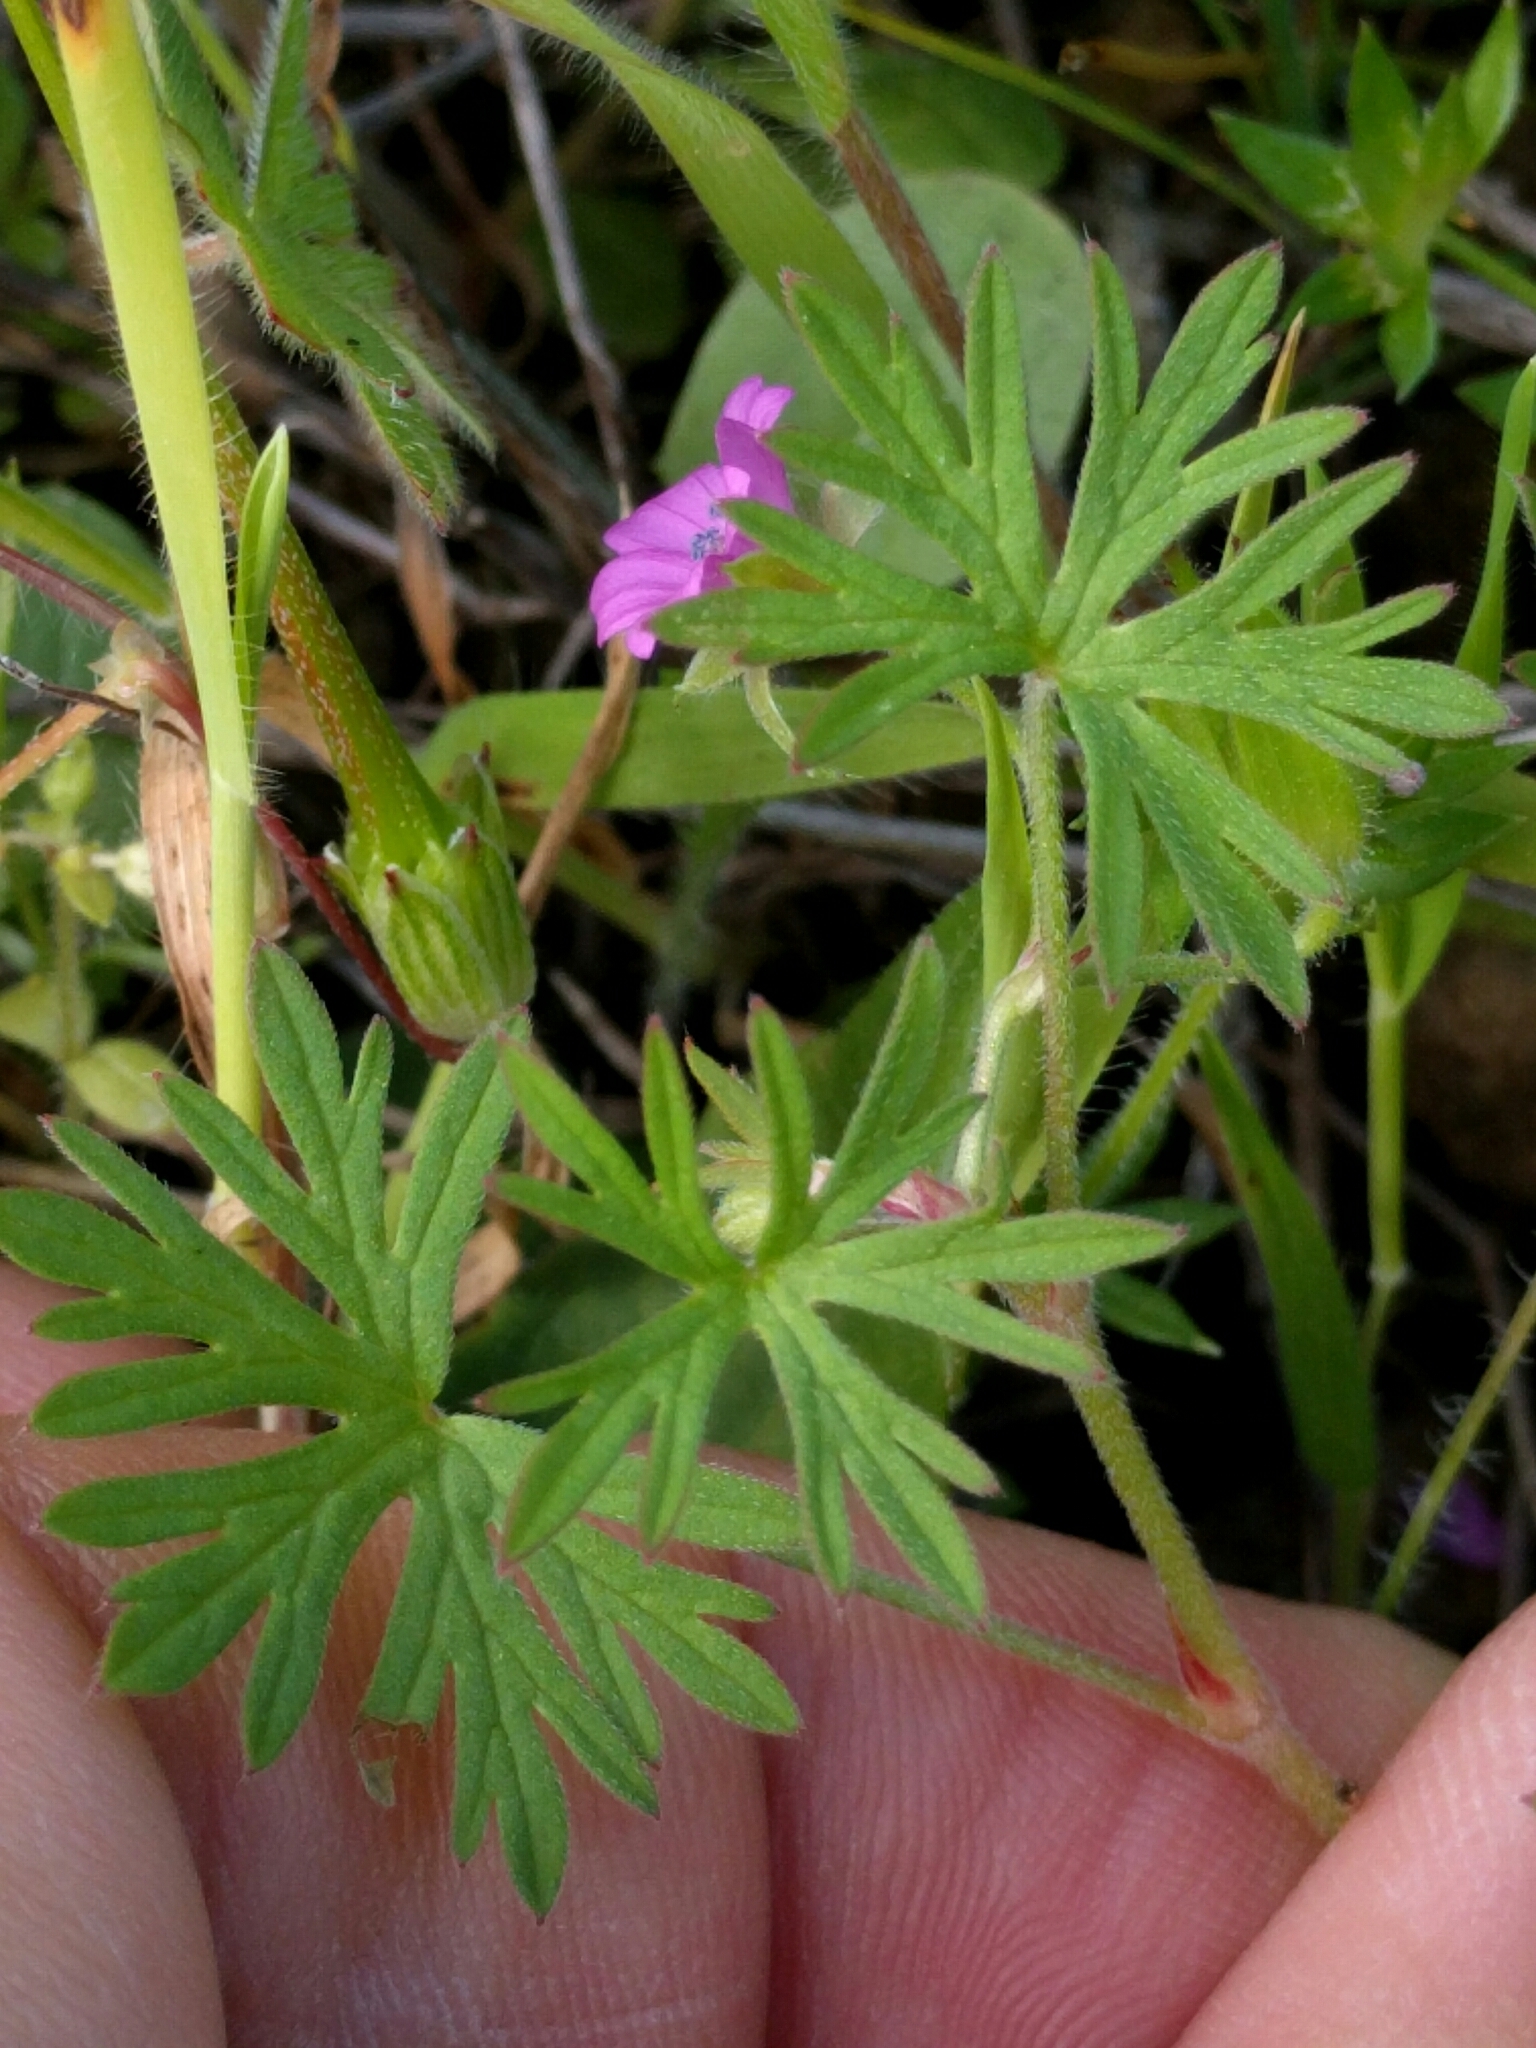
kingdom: Plantae
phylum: Tracheophyta
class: Magnoliopsida
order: Geraniales
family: Geraniaceae
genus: Geranium
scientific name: Geranium dissectum
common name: Cut-leaved crane's-bill
